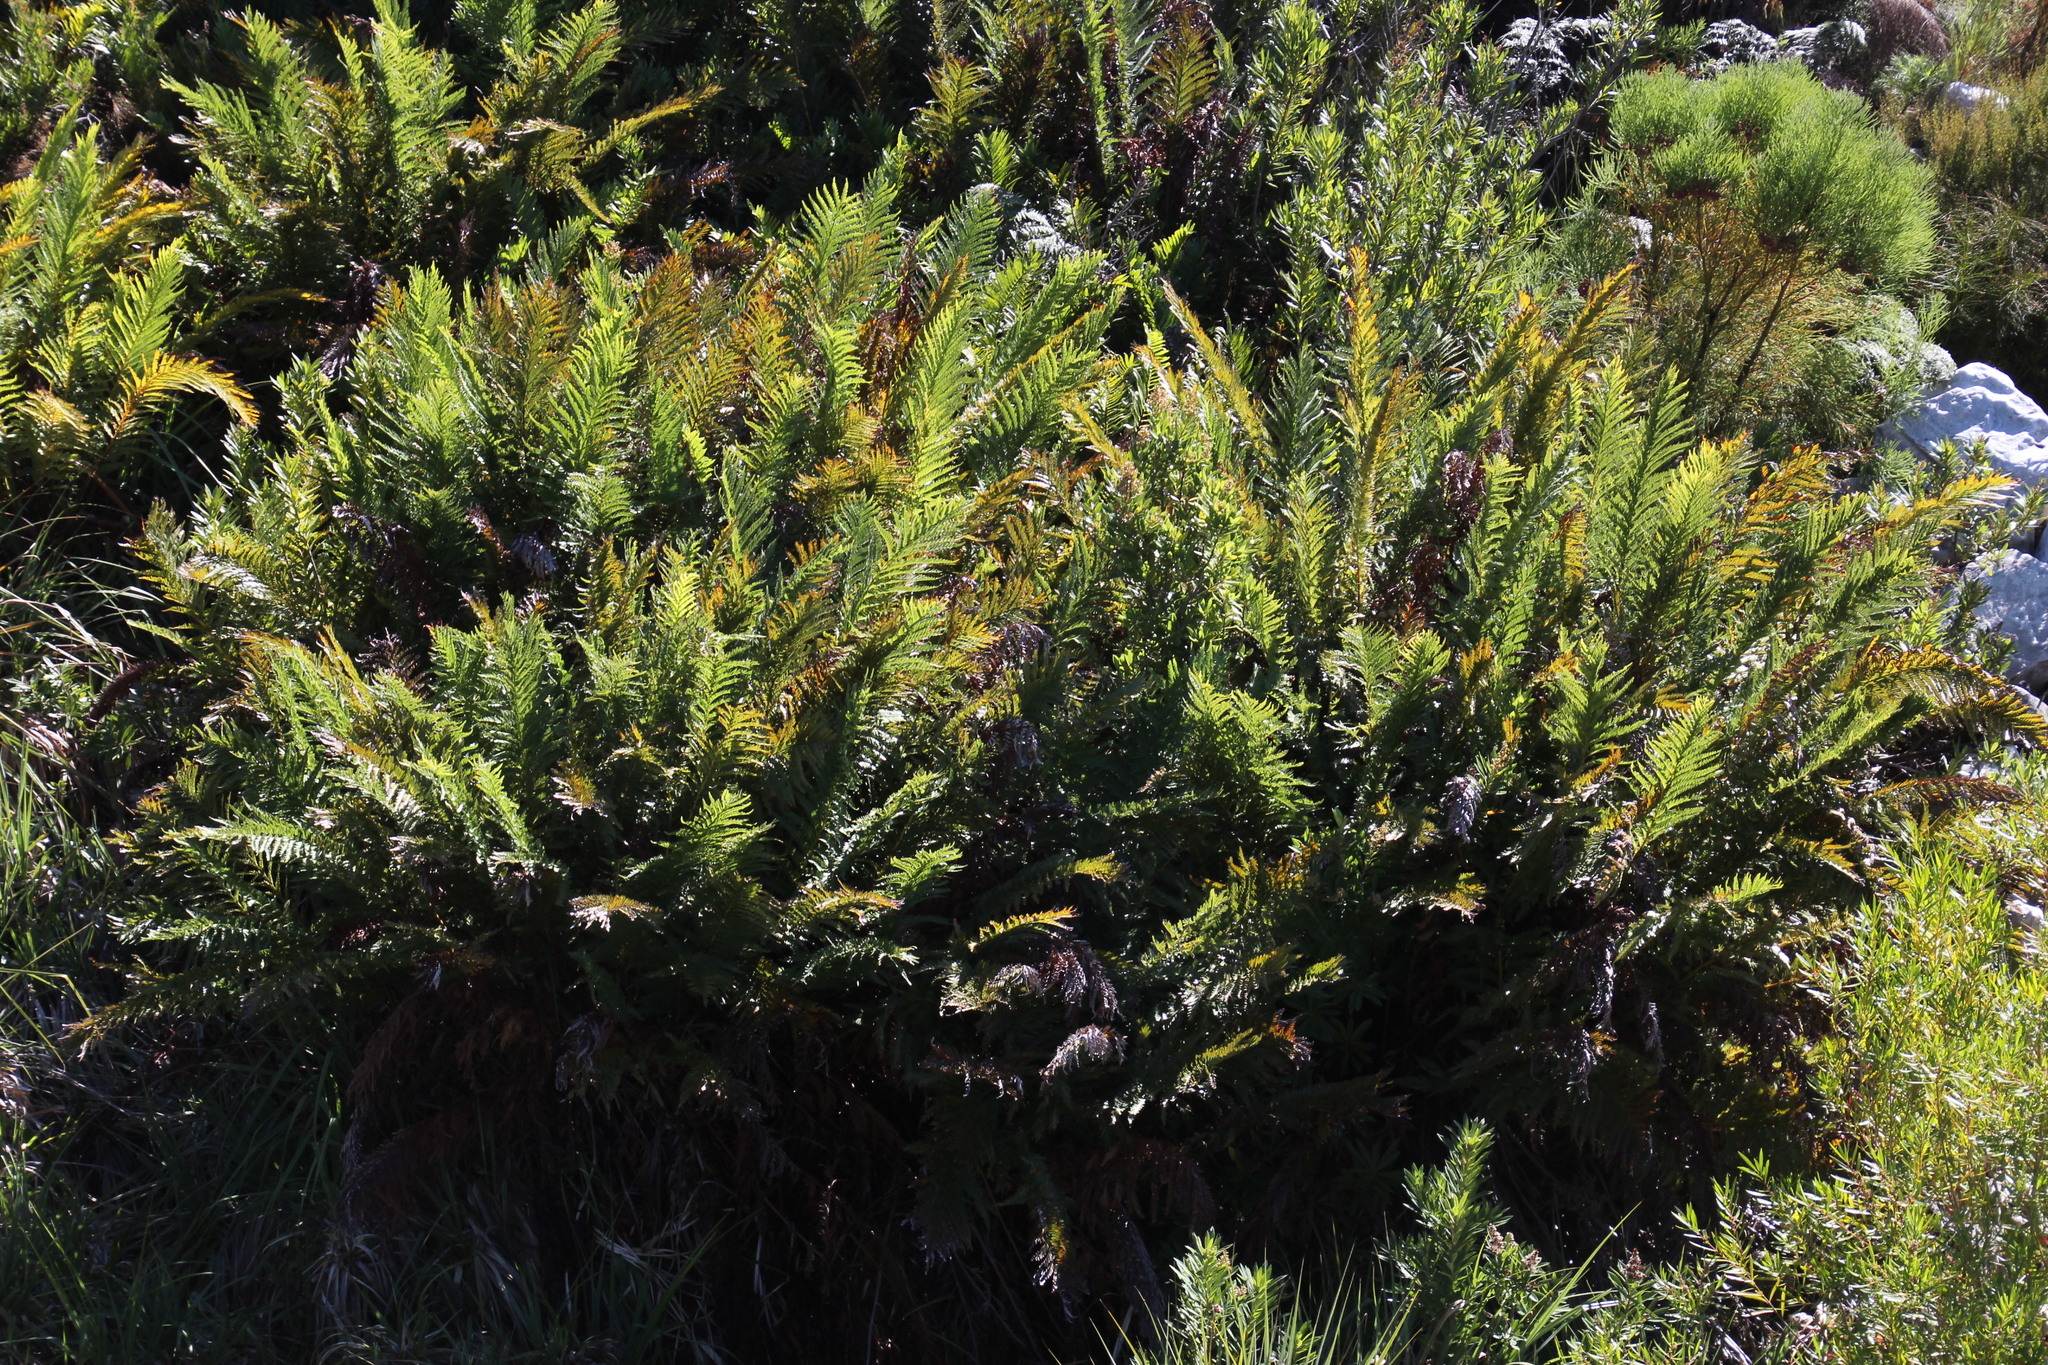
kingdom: Plantae
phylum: Tracheophyta
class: Polypodiopsida
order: Osmundales
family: Osmundaceae
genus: Todea
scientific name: Todea barbara
